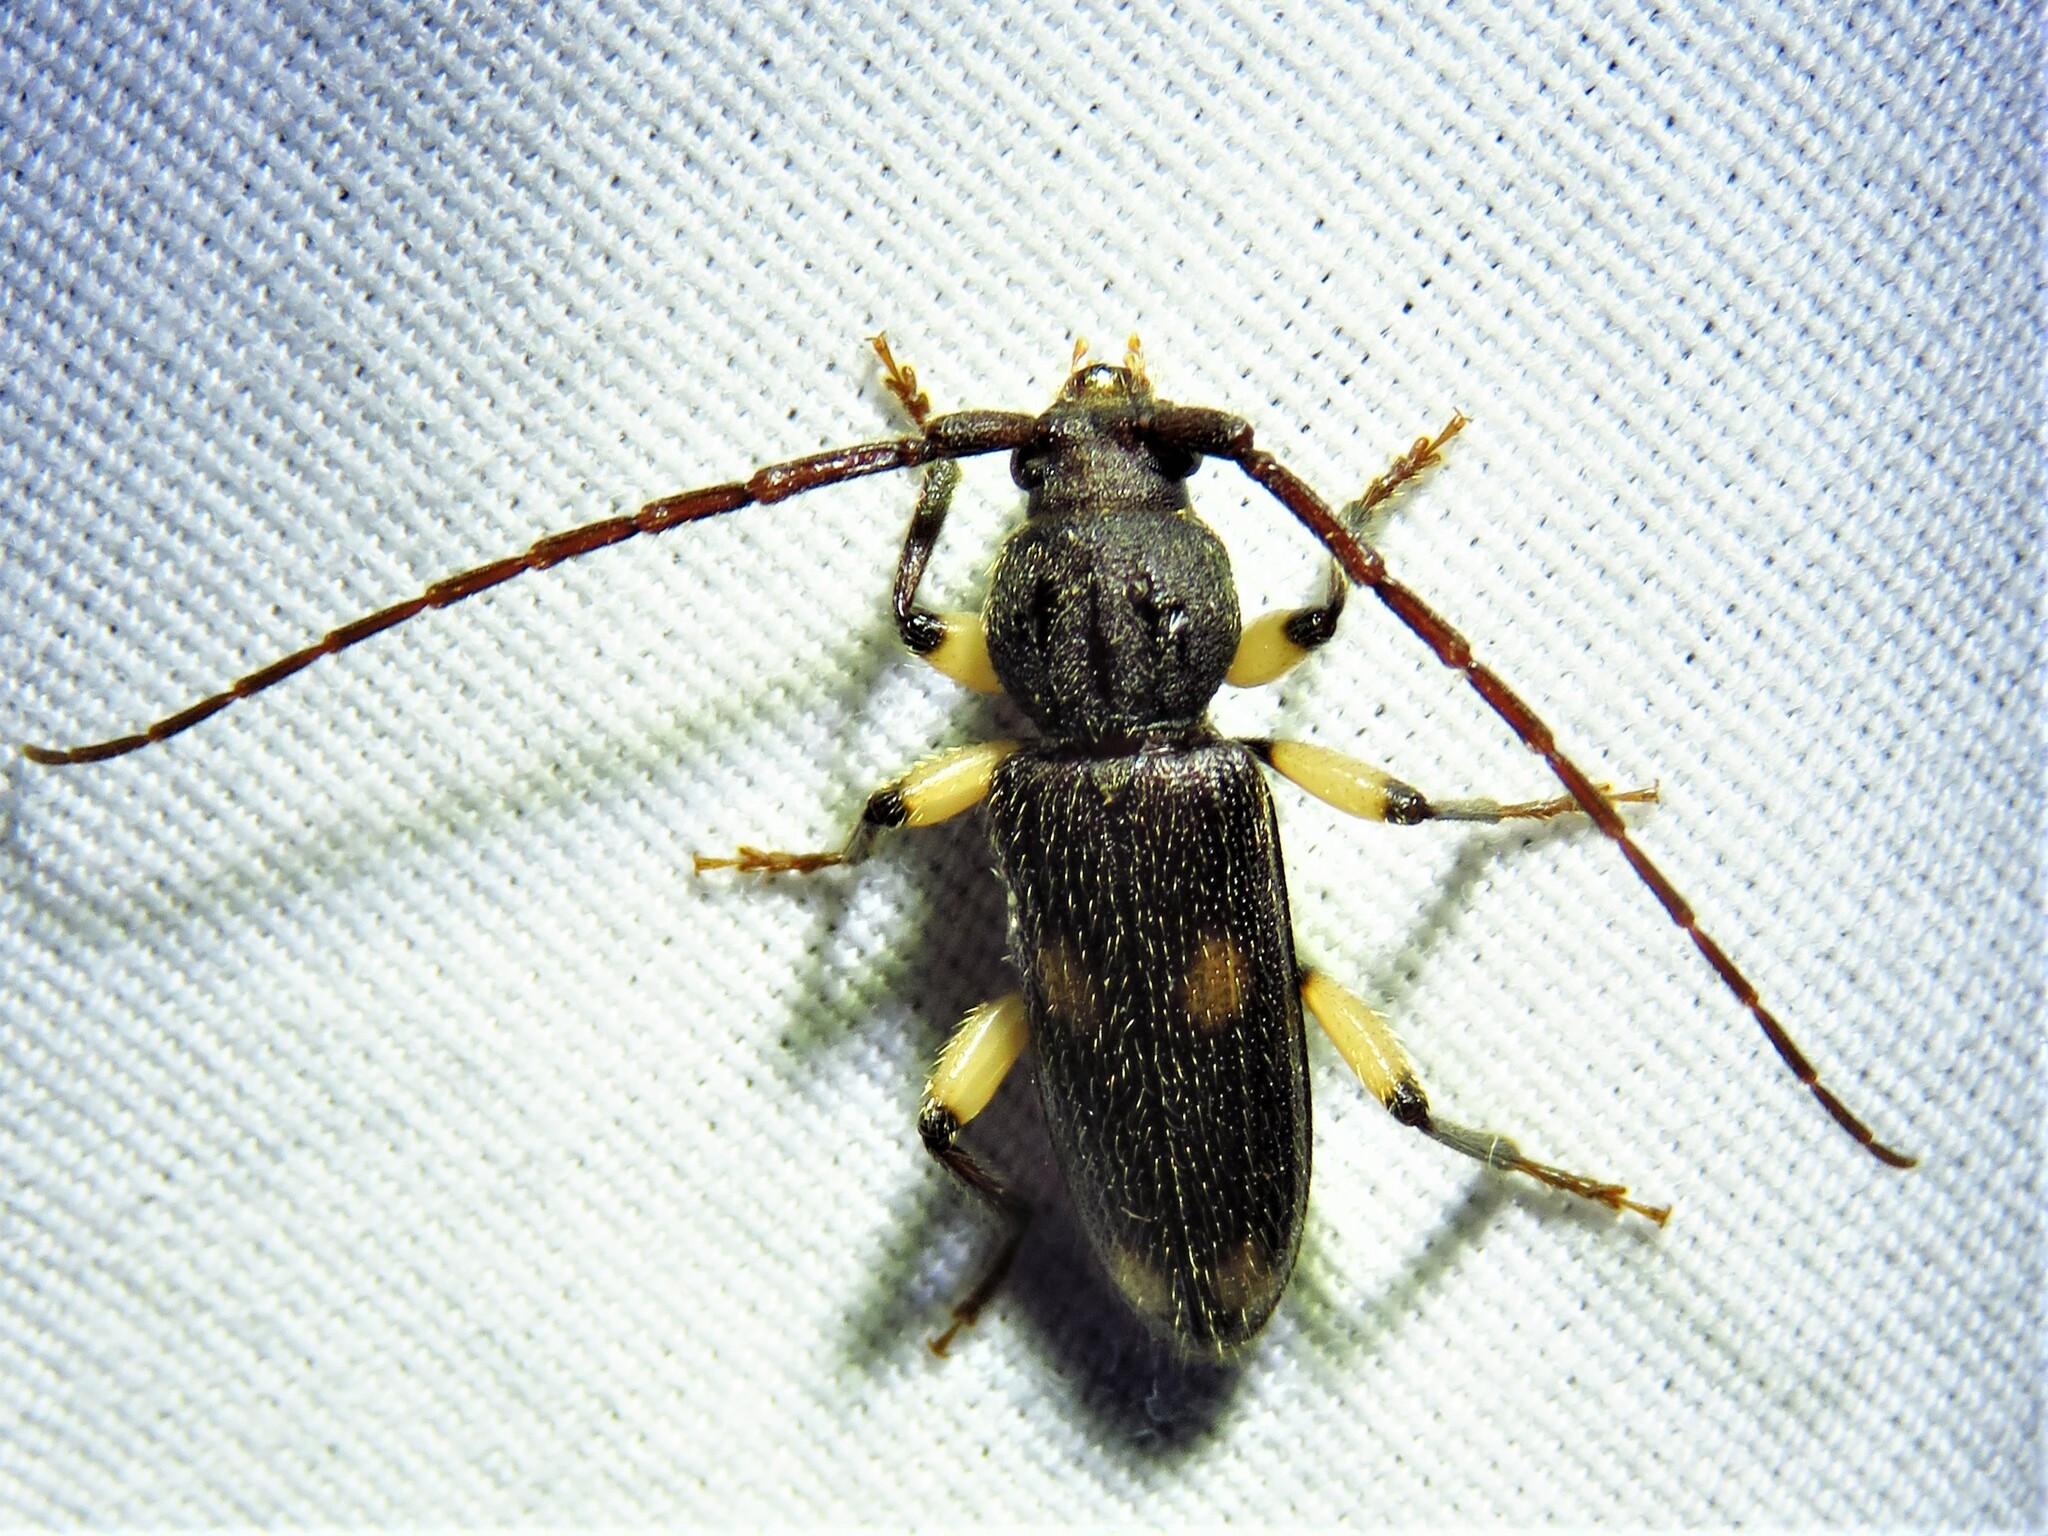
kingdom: Animalia
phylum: Arthropoda
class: Insecta
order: Coleoptera
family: Cerambycidae
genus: Tylonotus
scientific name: Tylonotus bimaculatus
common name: Ash and privet borer
